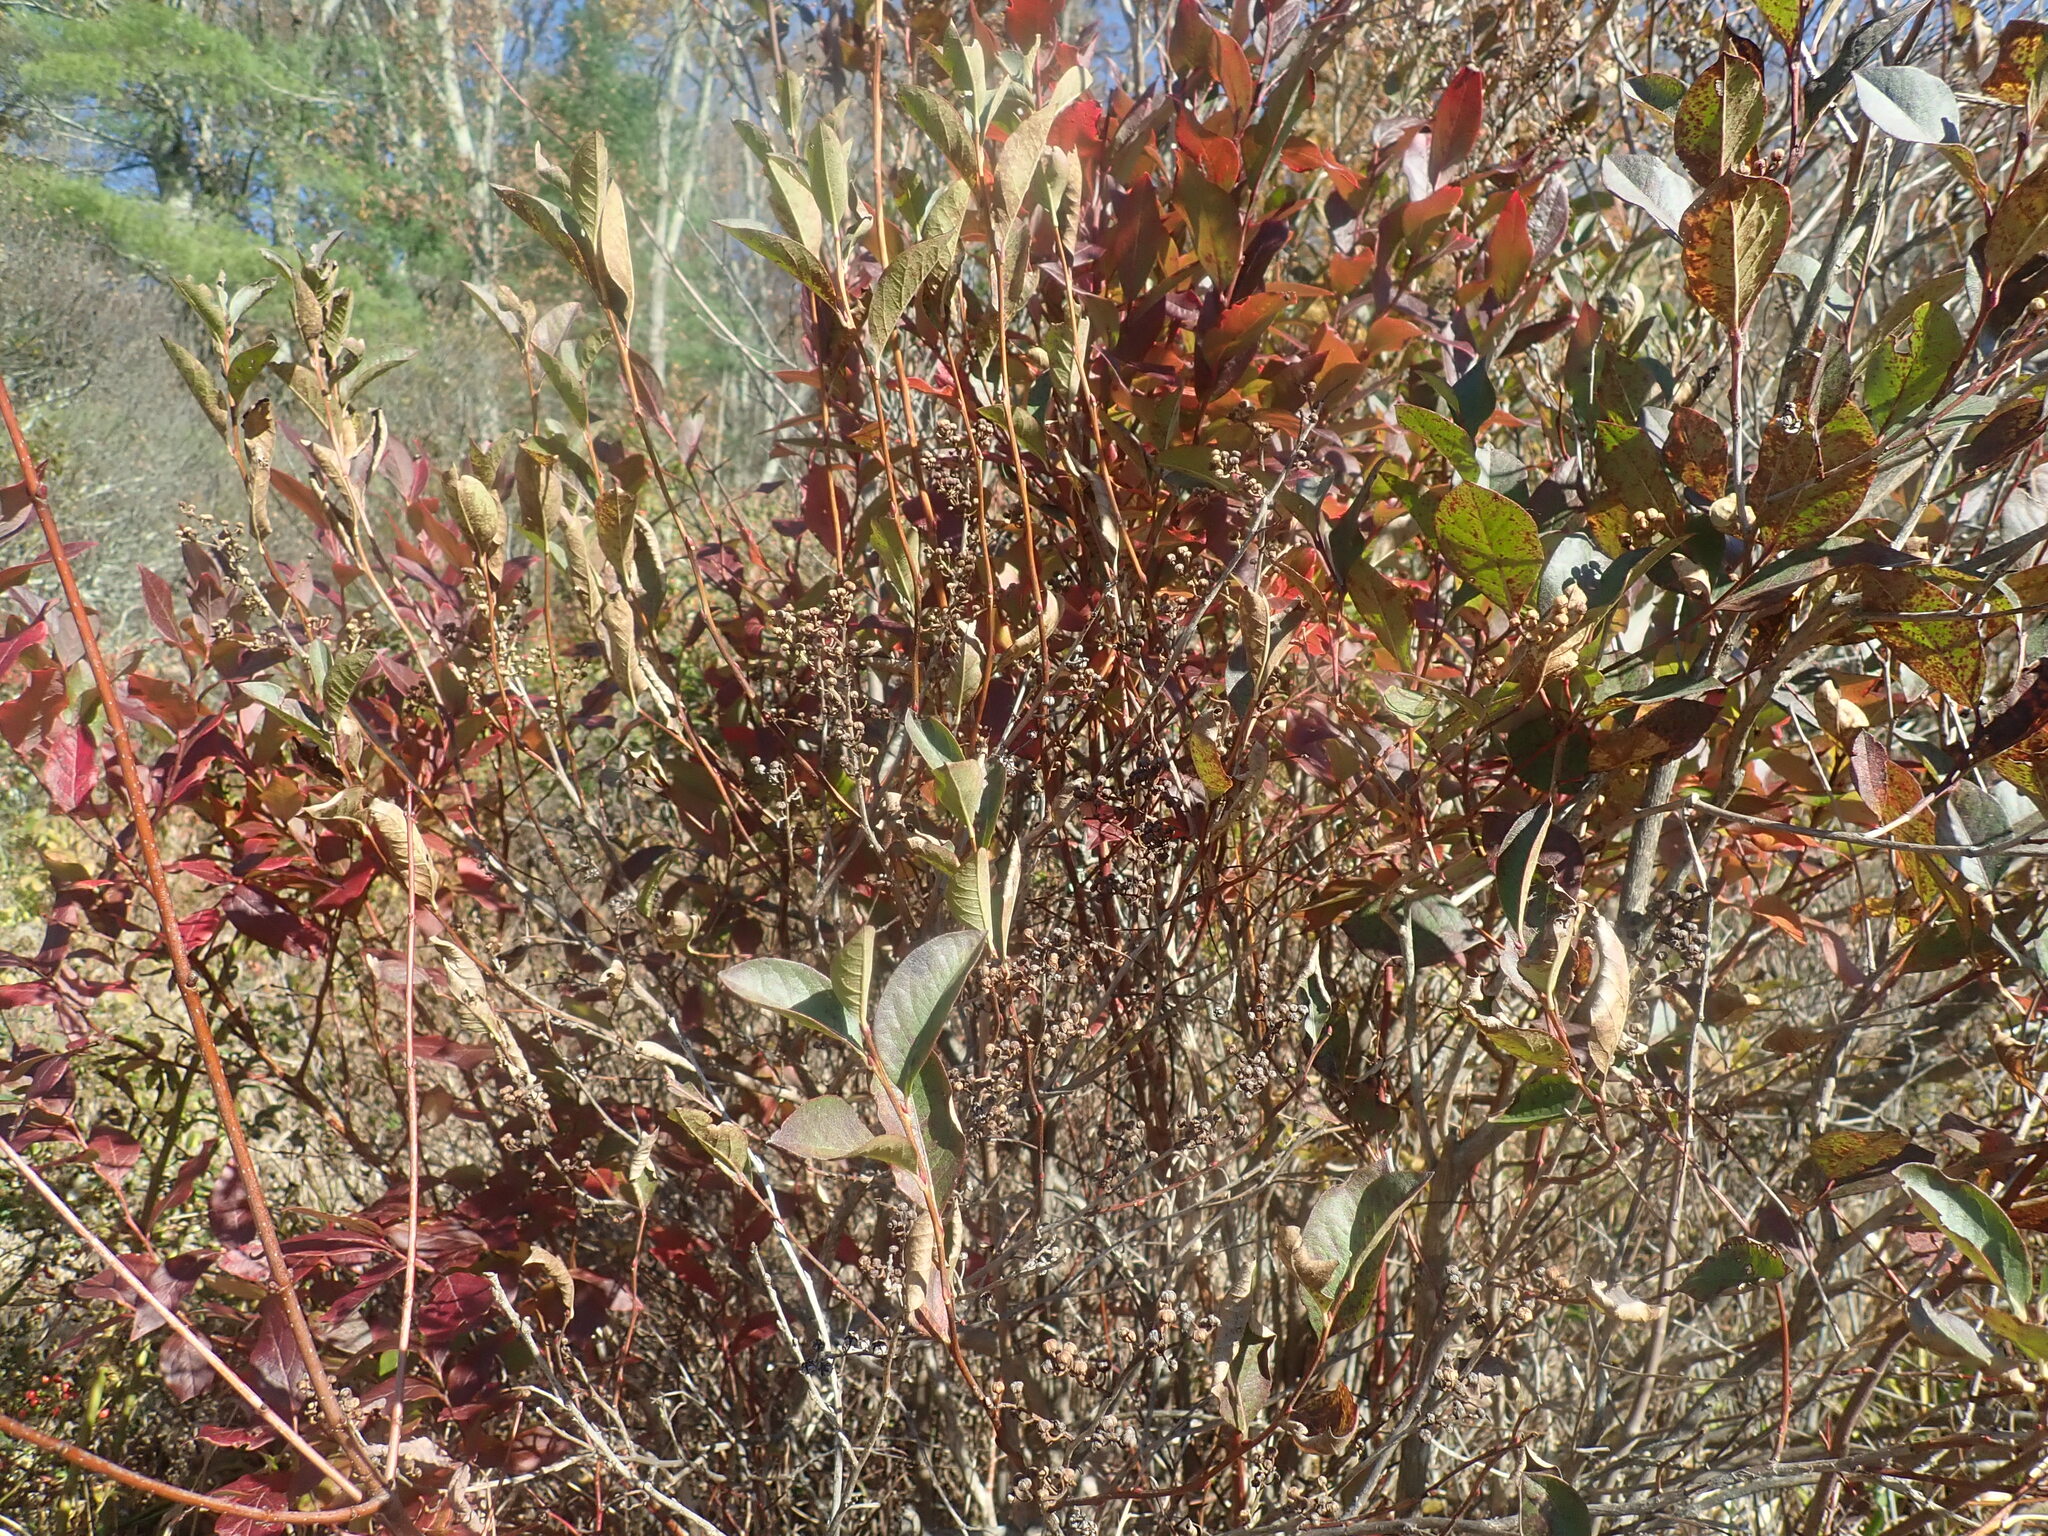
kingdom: Plantae
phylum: Tracheophyta
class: Magnoliopsida
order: Ericales
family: Ericaceae
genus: Lyonia
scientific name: Lyonia ligustrina
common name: Maleberry
